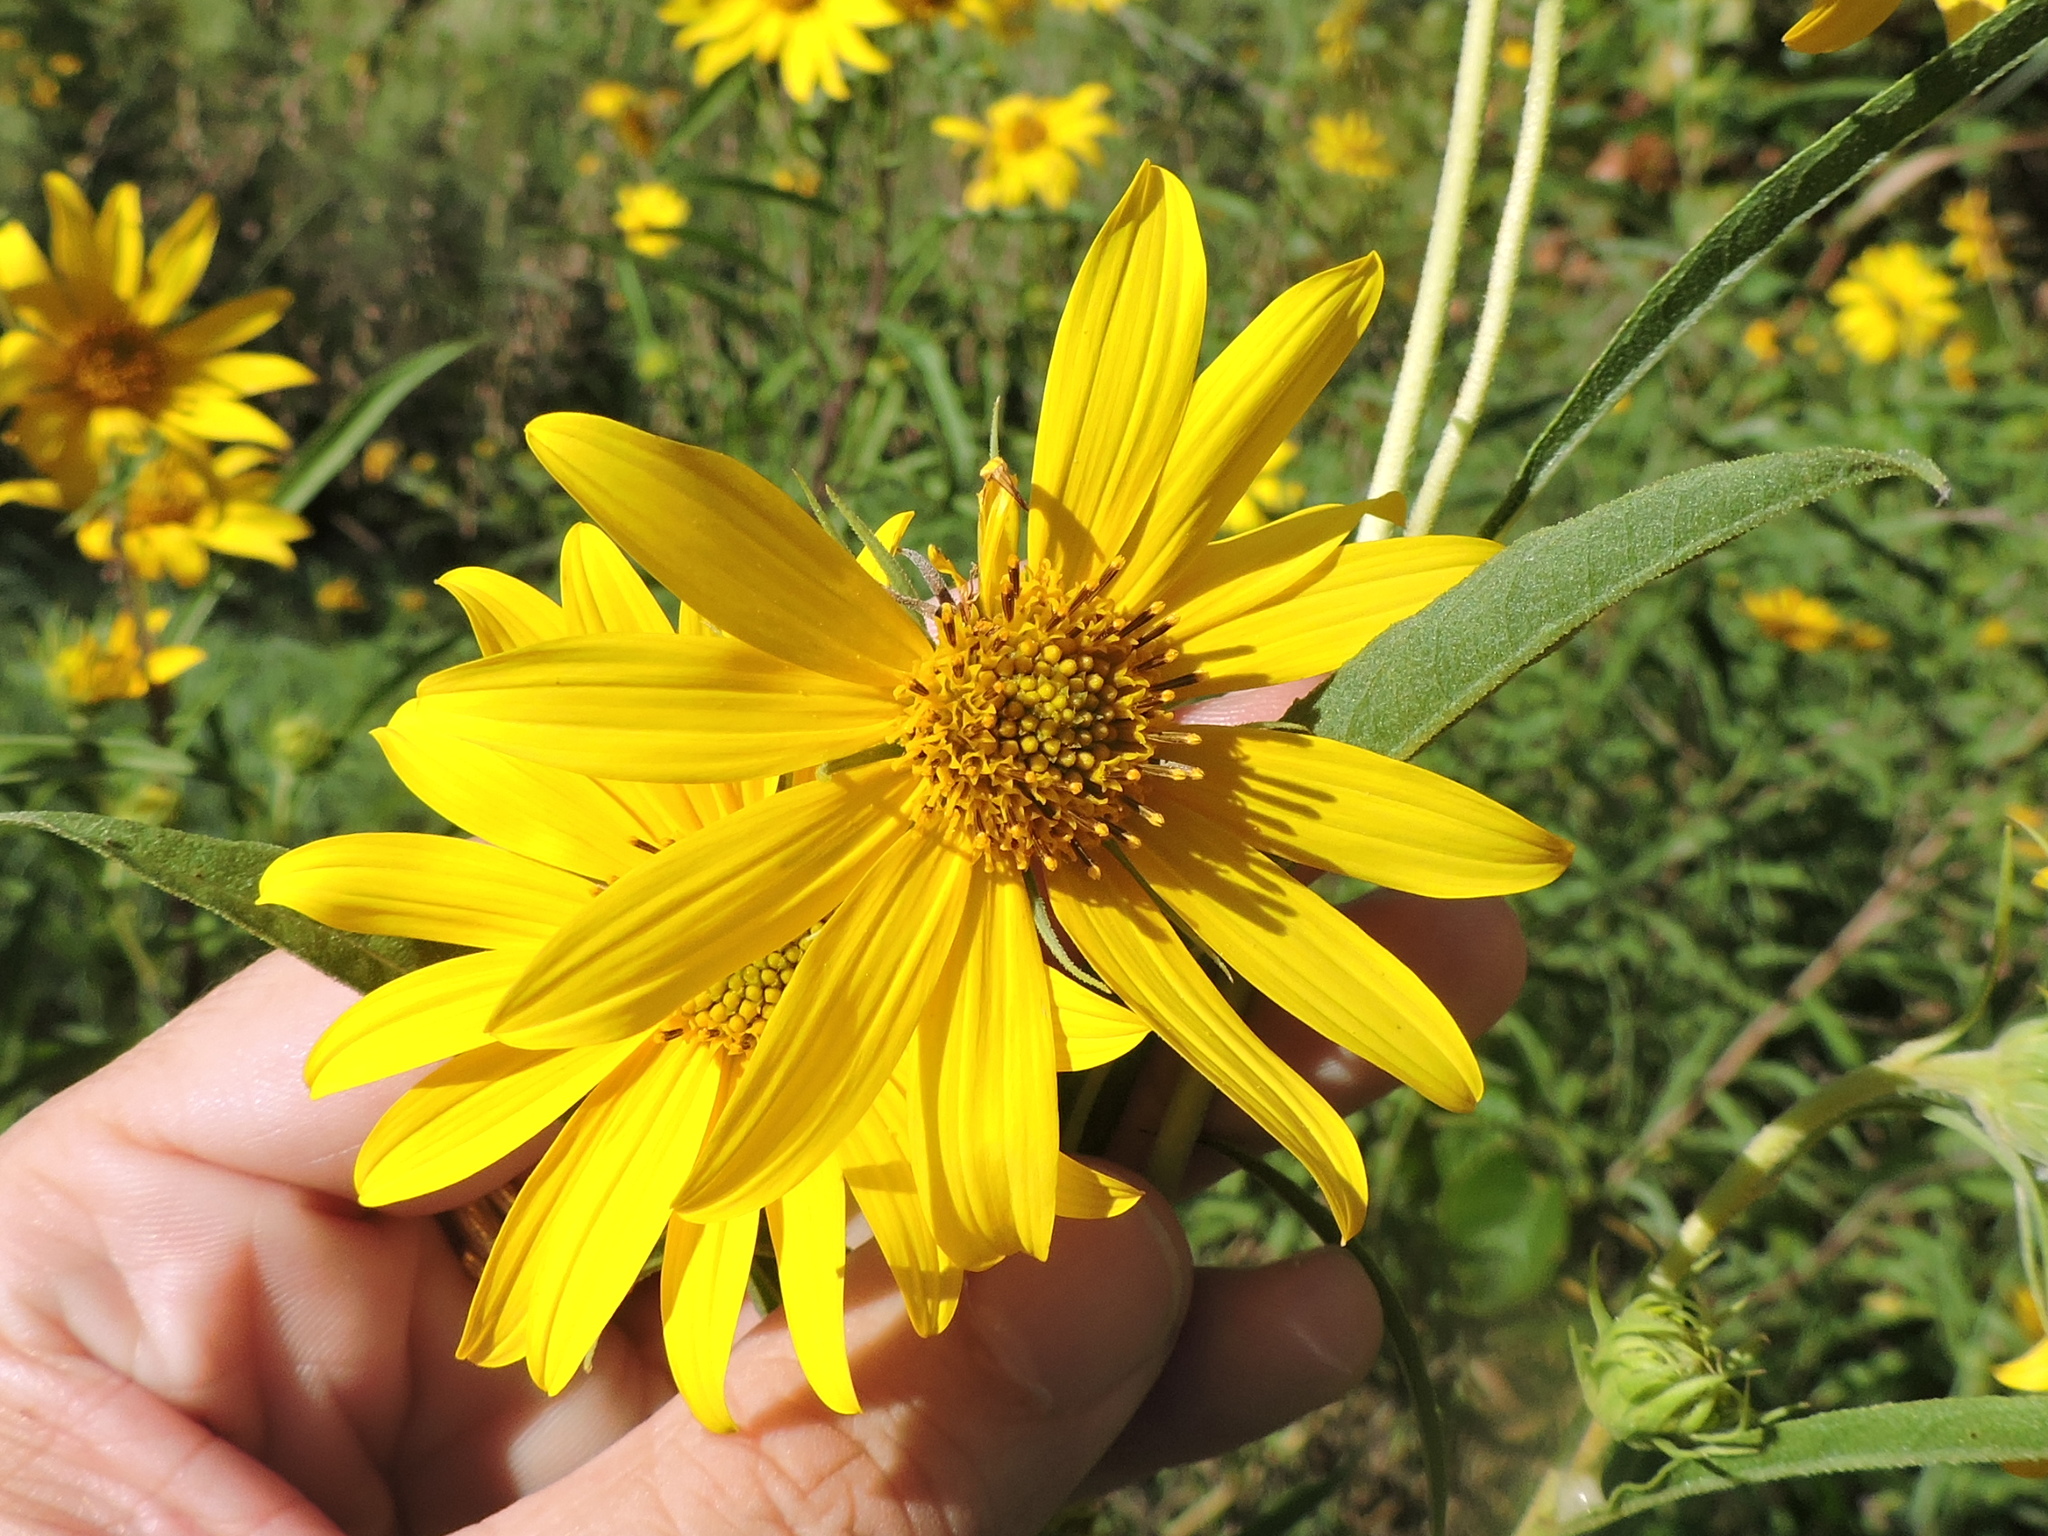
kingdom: Plantae
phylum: Tracheophyta
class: Magnoliopsida
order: Asterales
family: Asteraceae
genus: Helianthus
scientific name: Helianthus maximiliani
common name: Maximilian's sunflower
